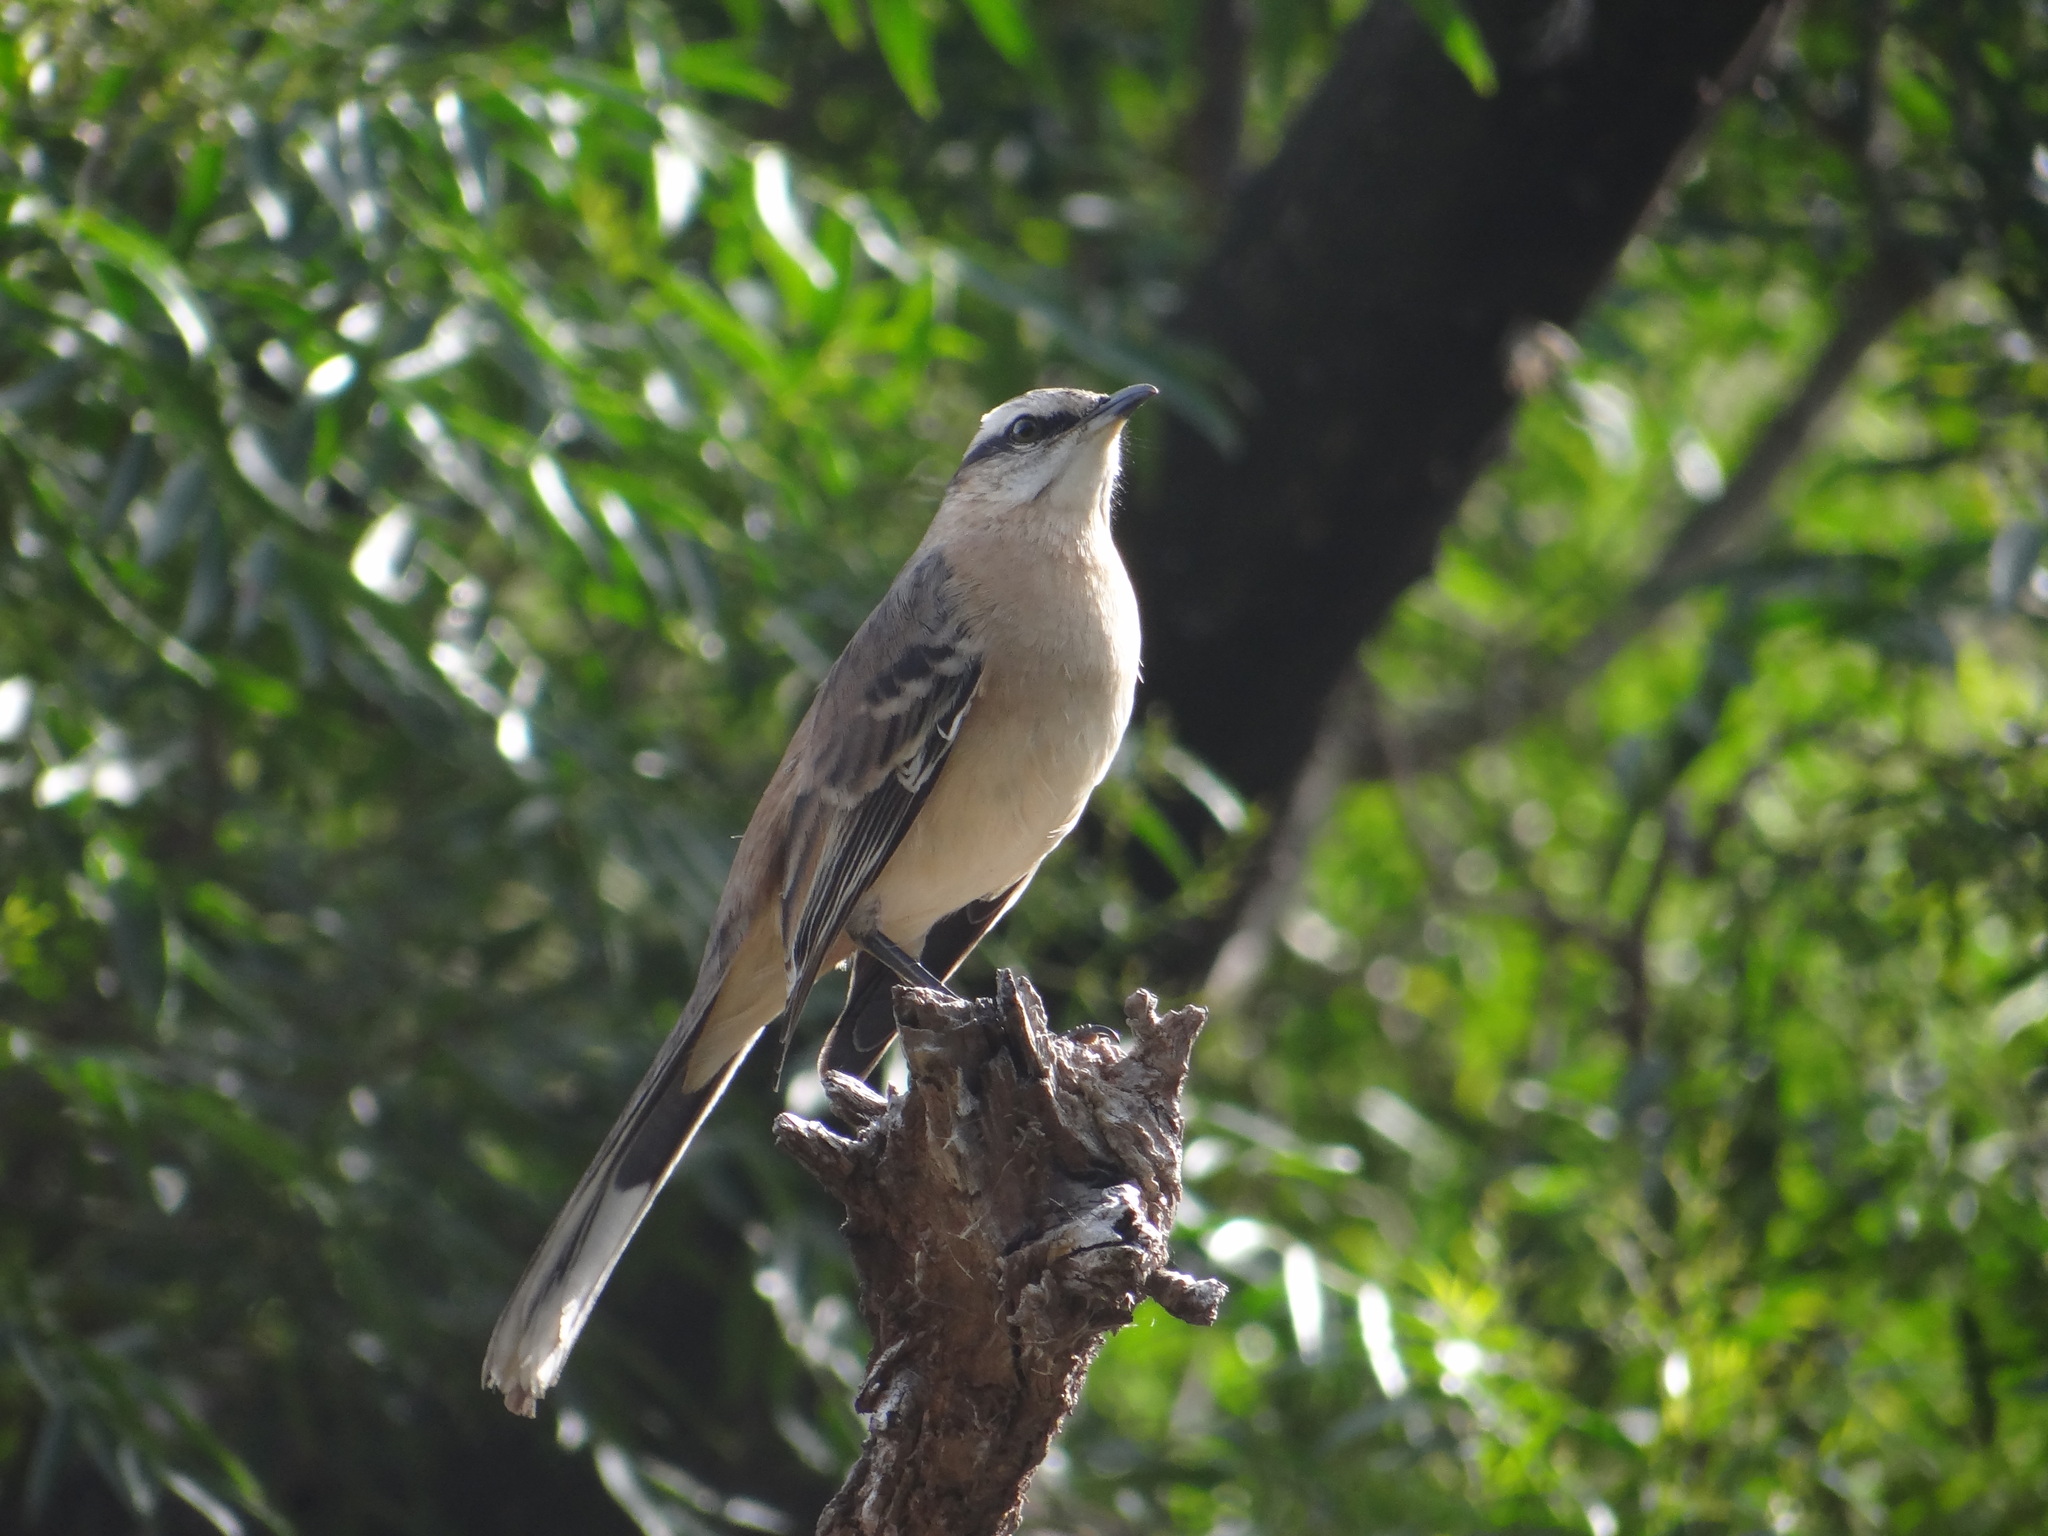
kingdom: Animalia
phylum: Chordata
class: Aves
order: Passeriformes
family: Mimidae
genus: Mimus
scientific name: Mimus saturninus
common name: Chalk-browed mockingbird
